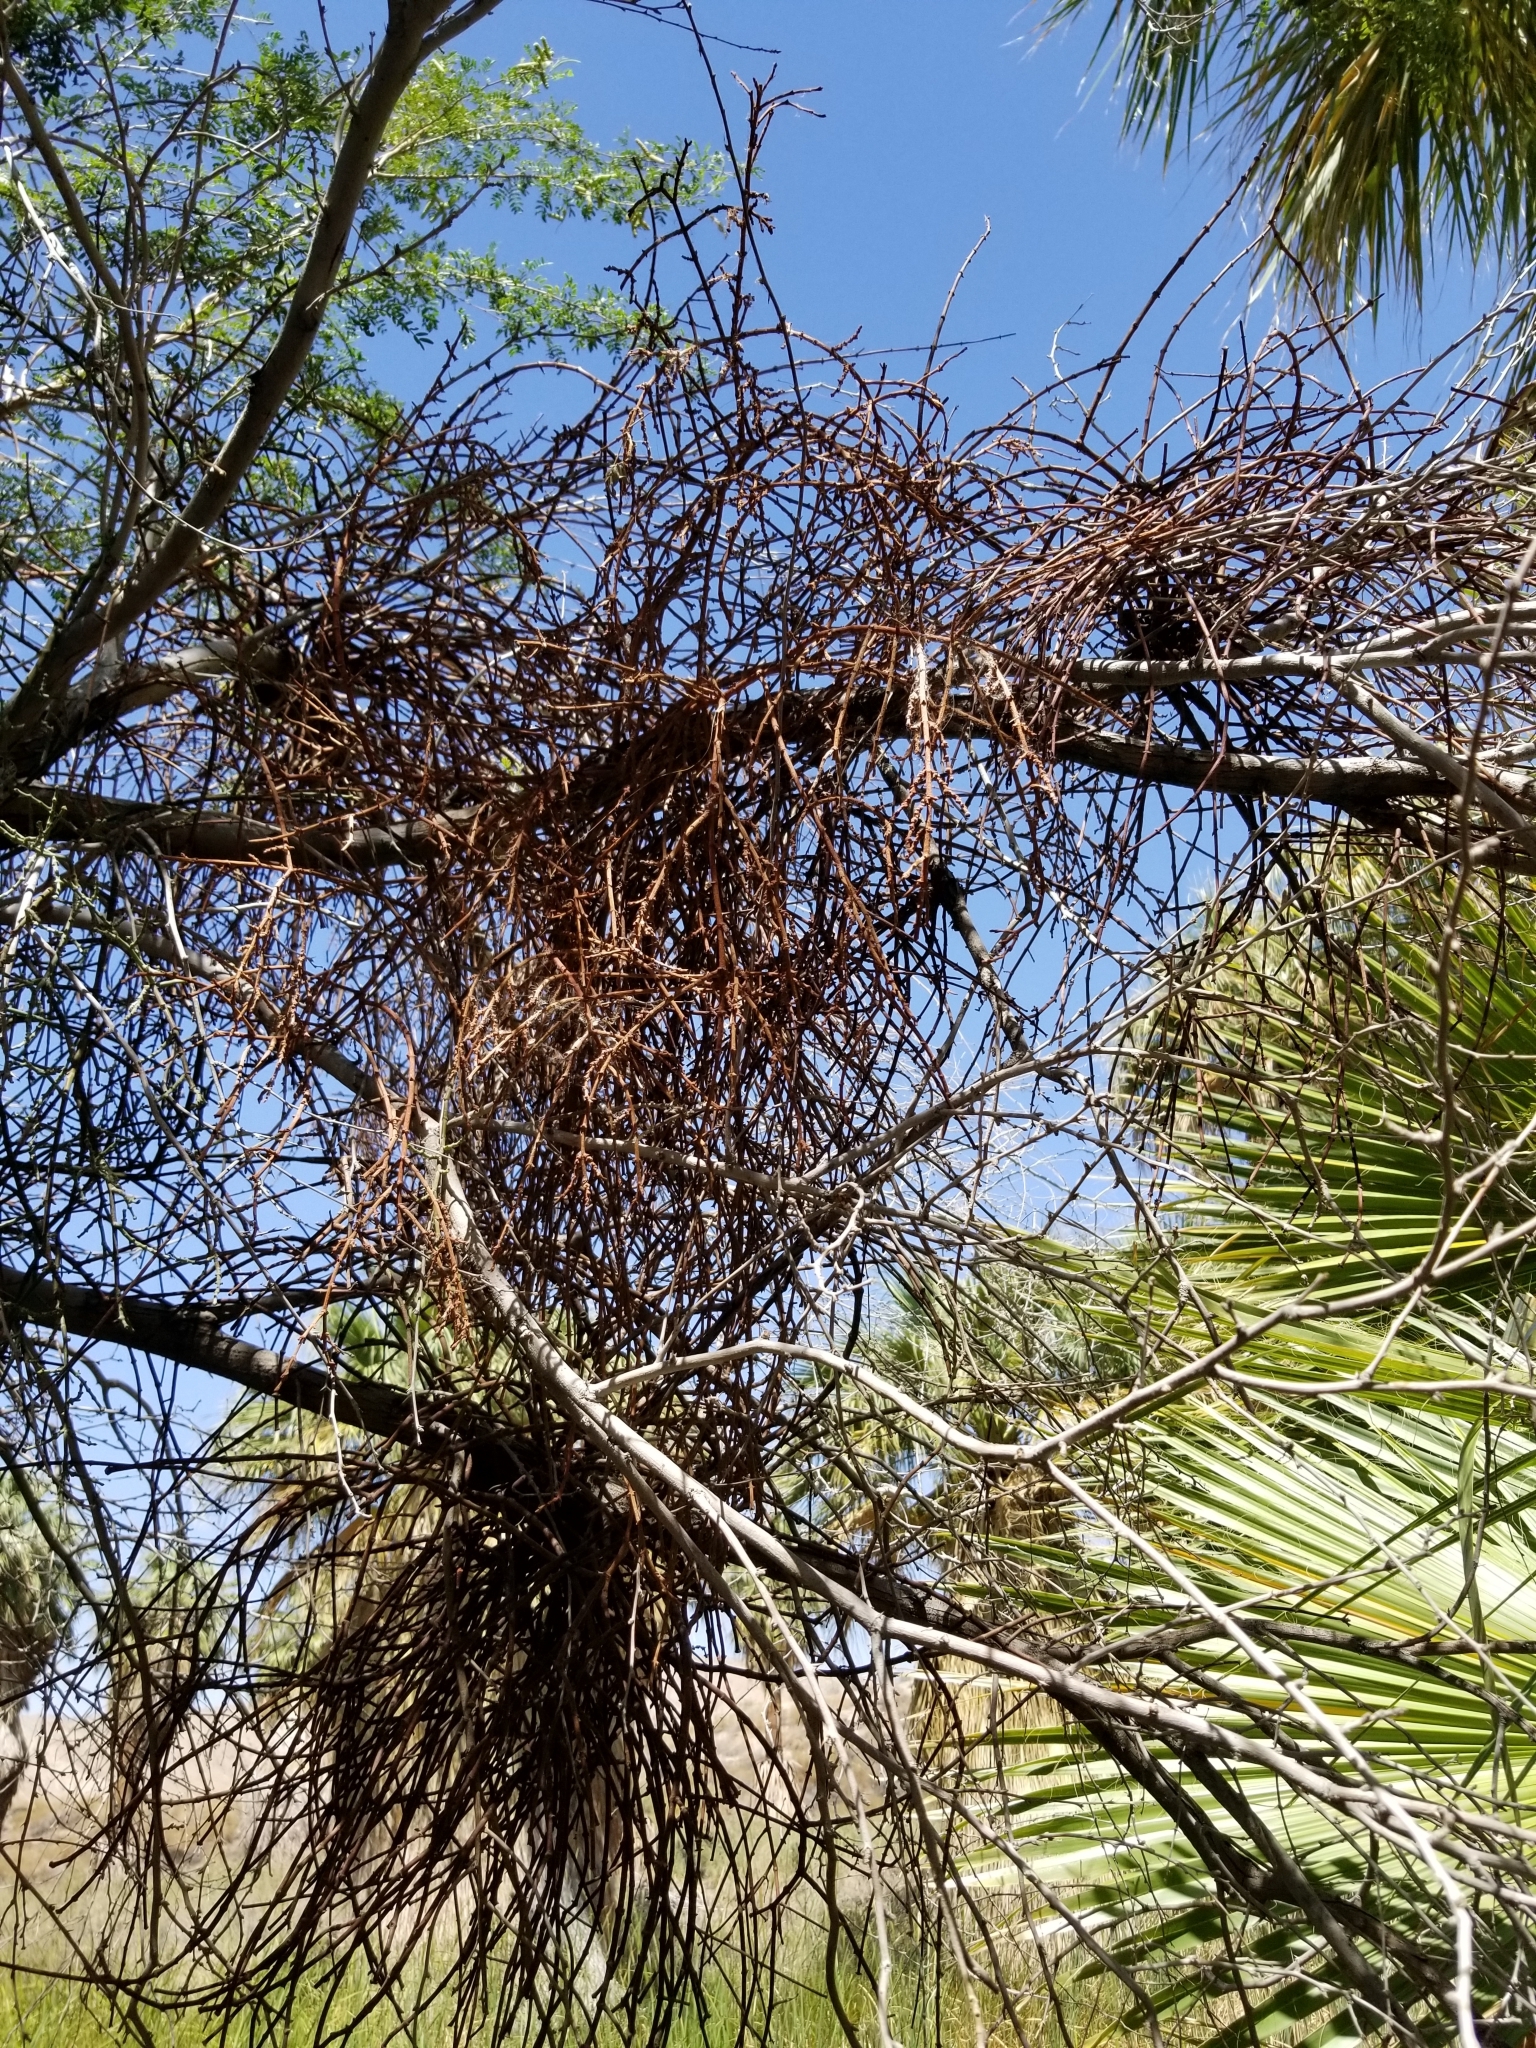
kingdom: Plantae
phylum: Tracheophyta
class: Magnoliopsida
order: Santalales
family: Viscaceae
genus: Phoradendron
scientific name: Phoradendron californicum
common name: Acacia mistletoe
